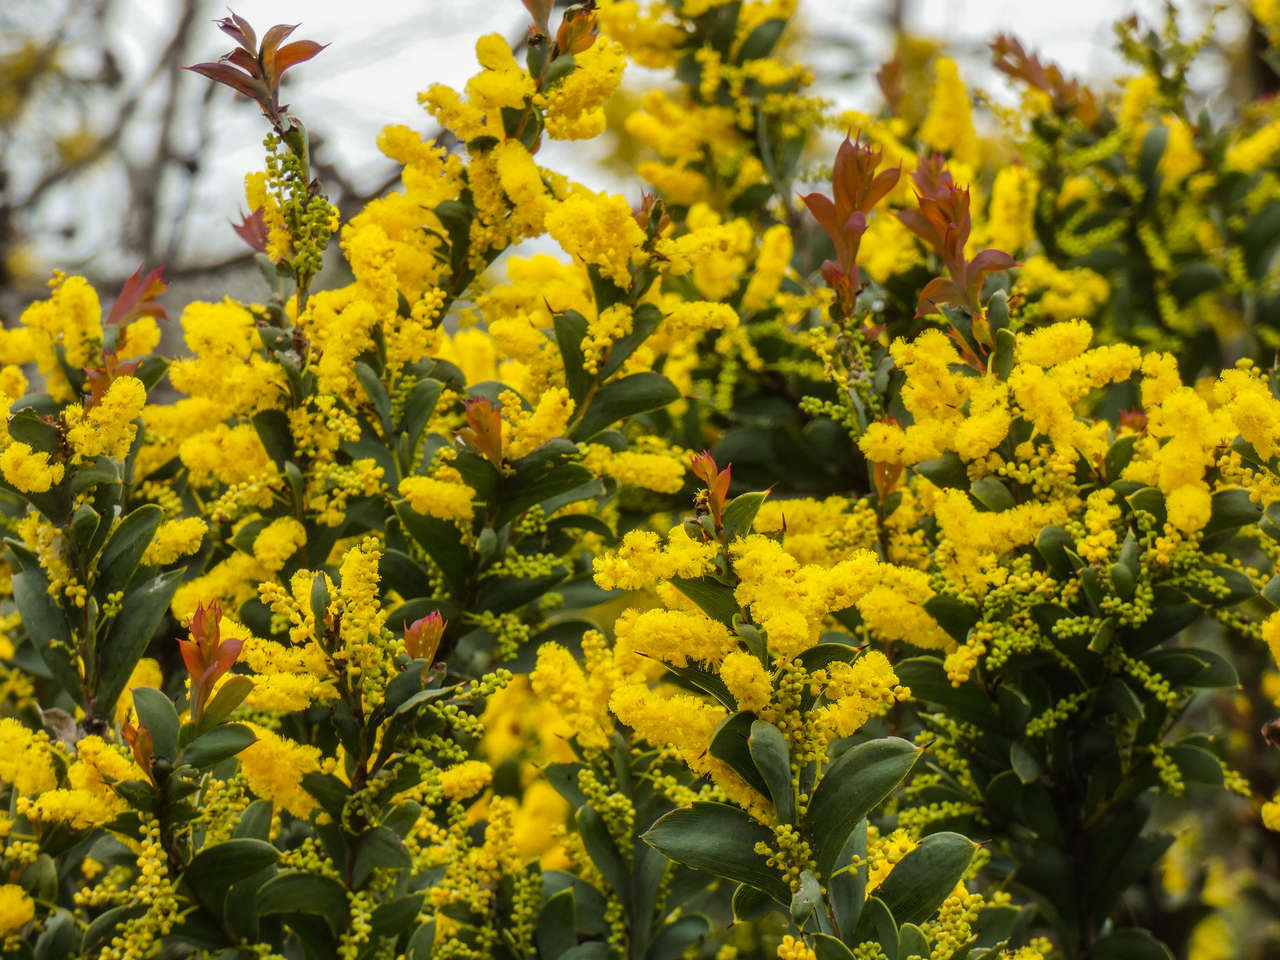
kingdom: Plantae
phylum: Tracheophyta
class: Magnoliopsida
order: Fabales
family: Fabaceae
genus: Acacia
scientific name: Acacia triptera
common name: Spur-wing wattle
